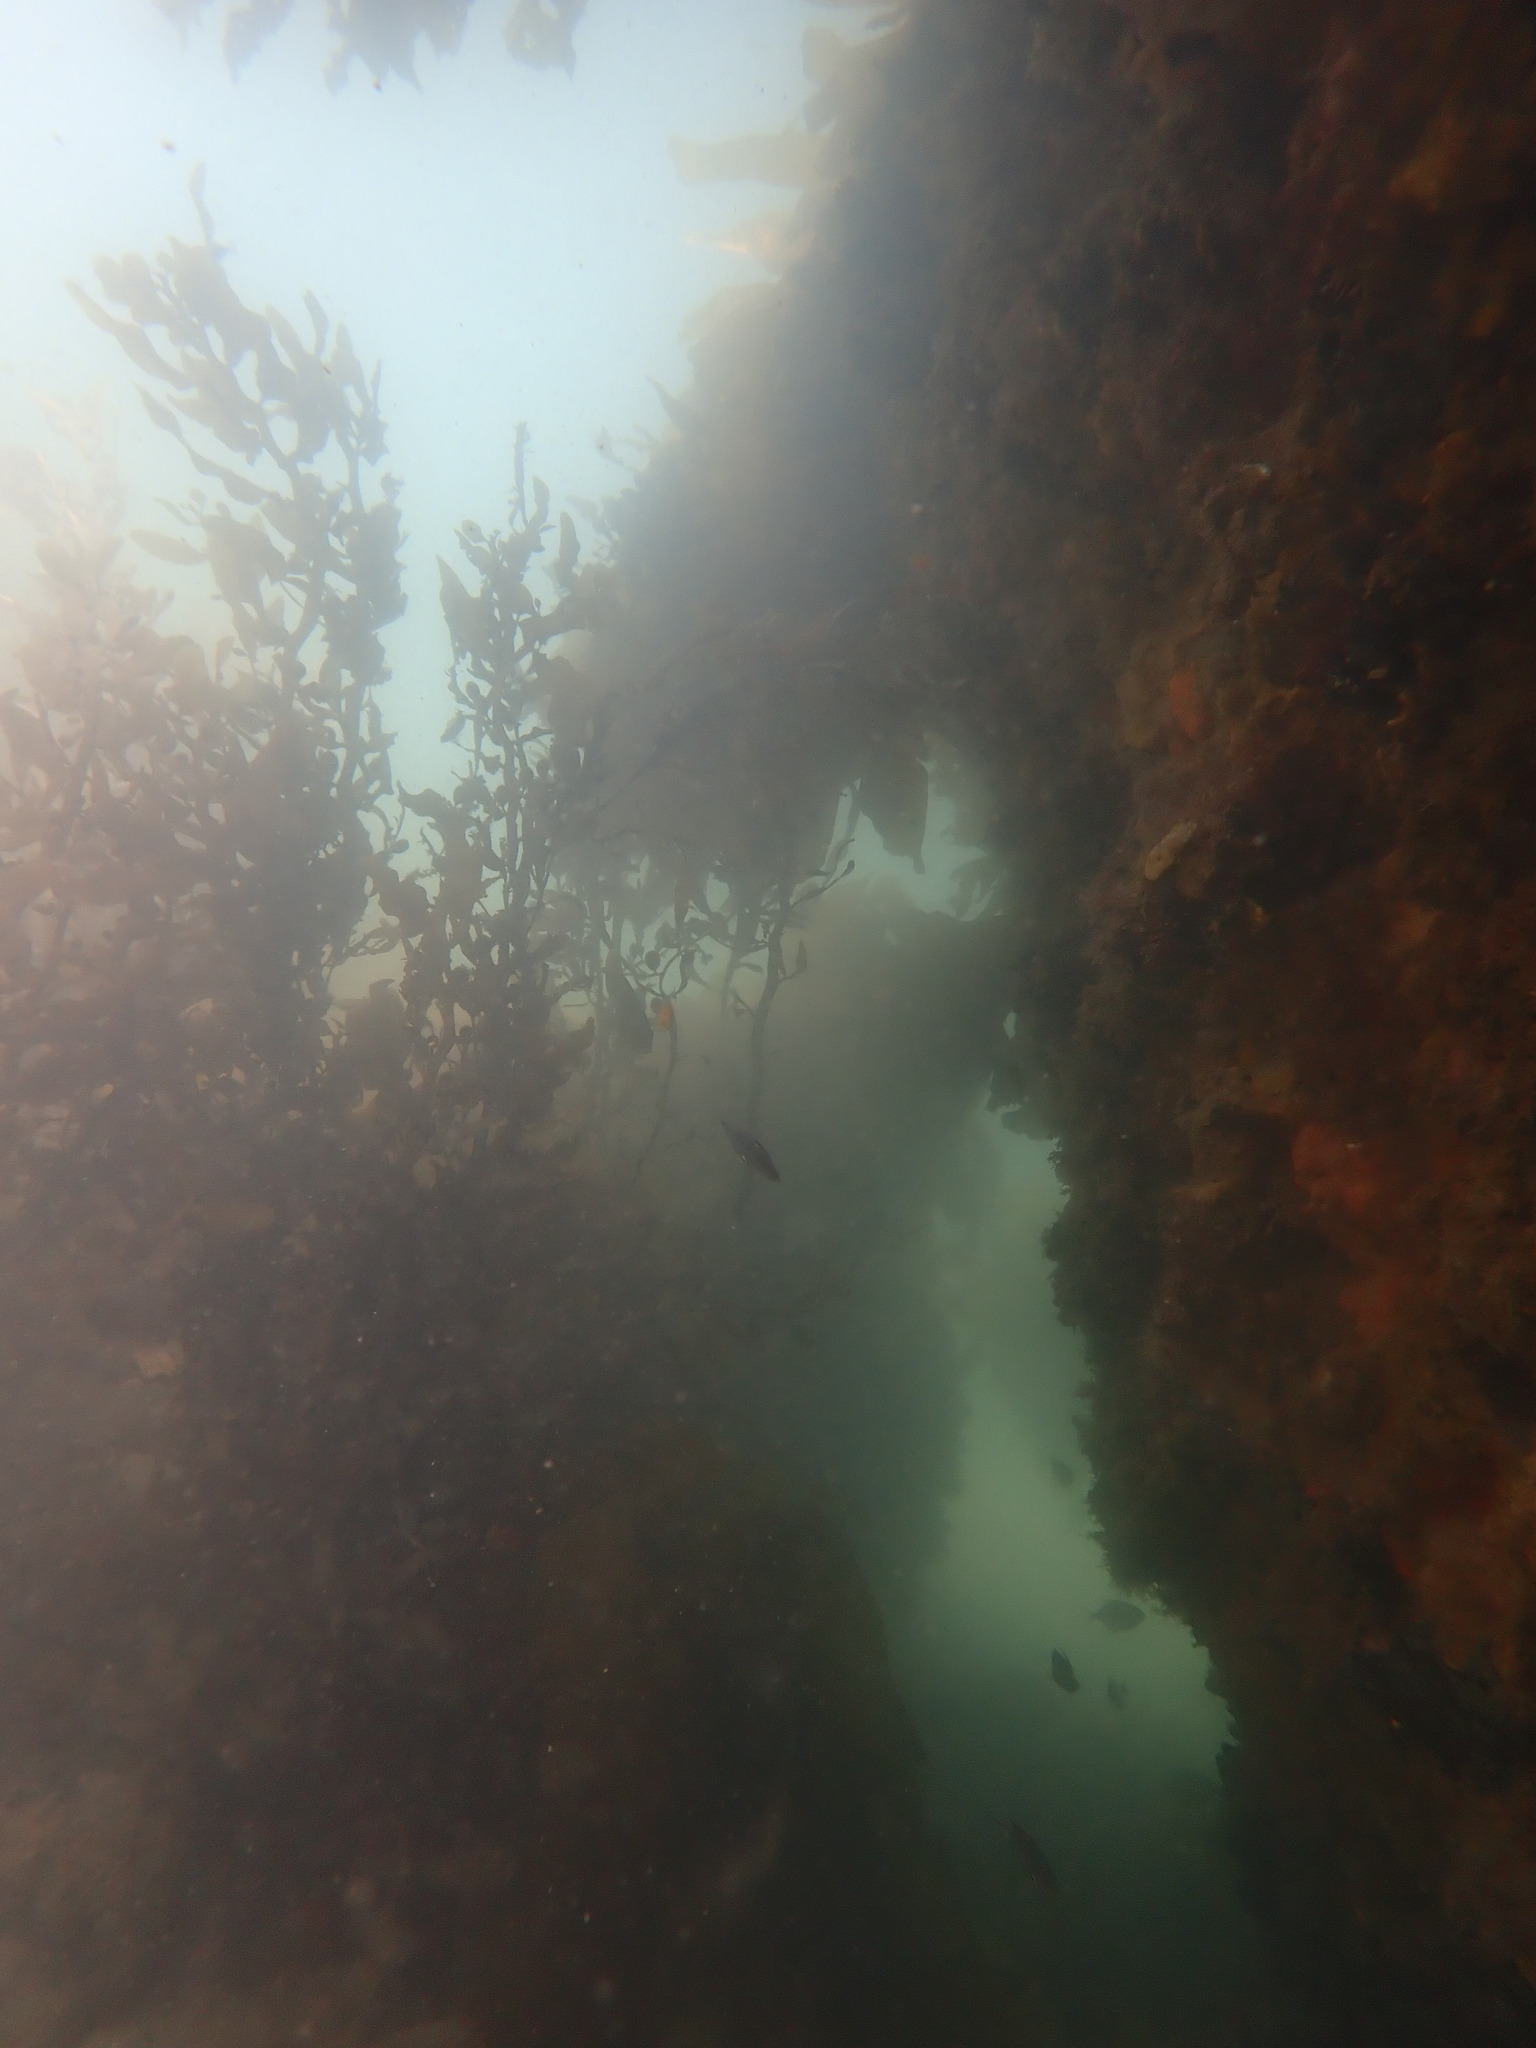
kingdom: Chromista
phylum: Ochrophyta
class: Phaeophyceae
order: Fucales
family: Sargassaceae
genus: Carpophyllum
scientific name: Carpophyllum flexuosum
